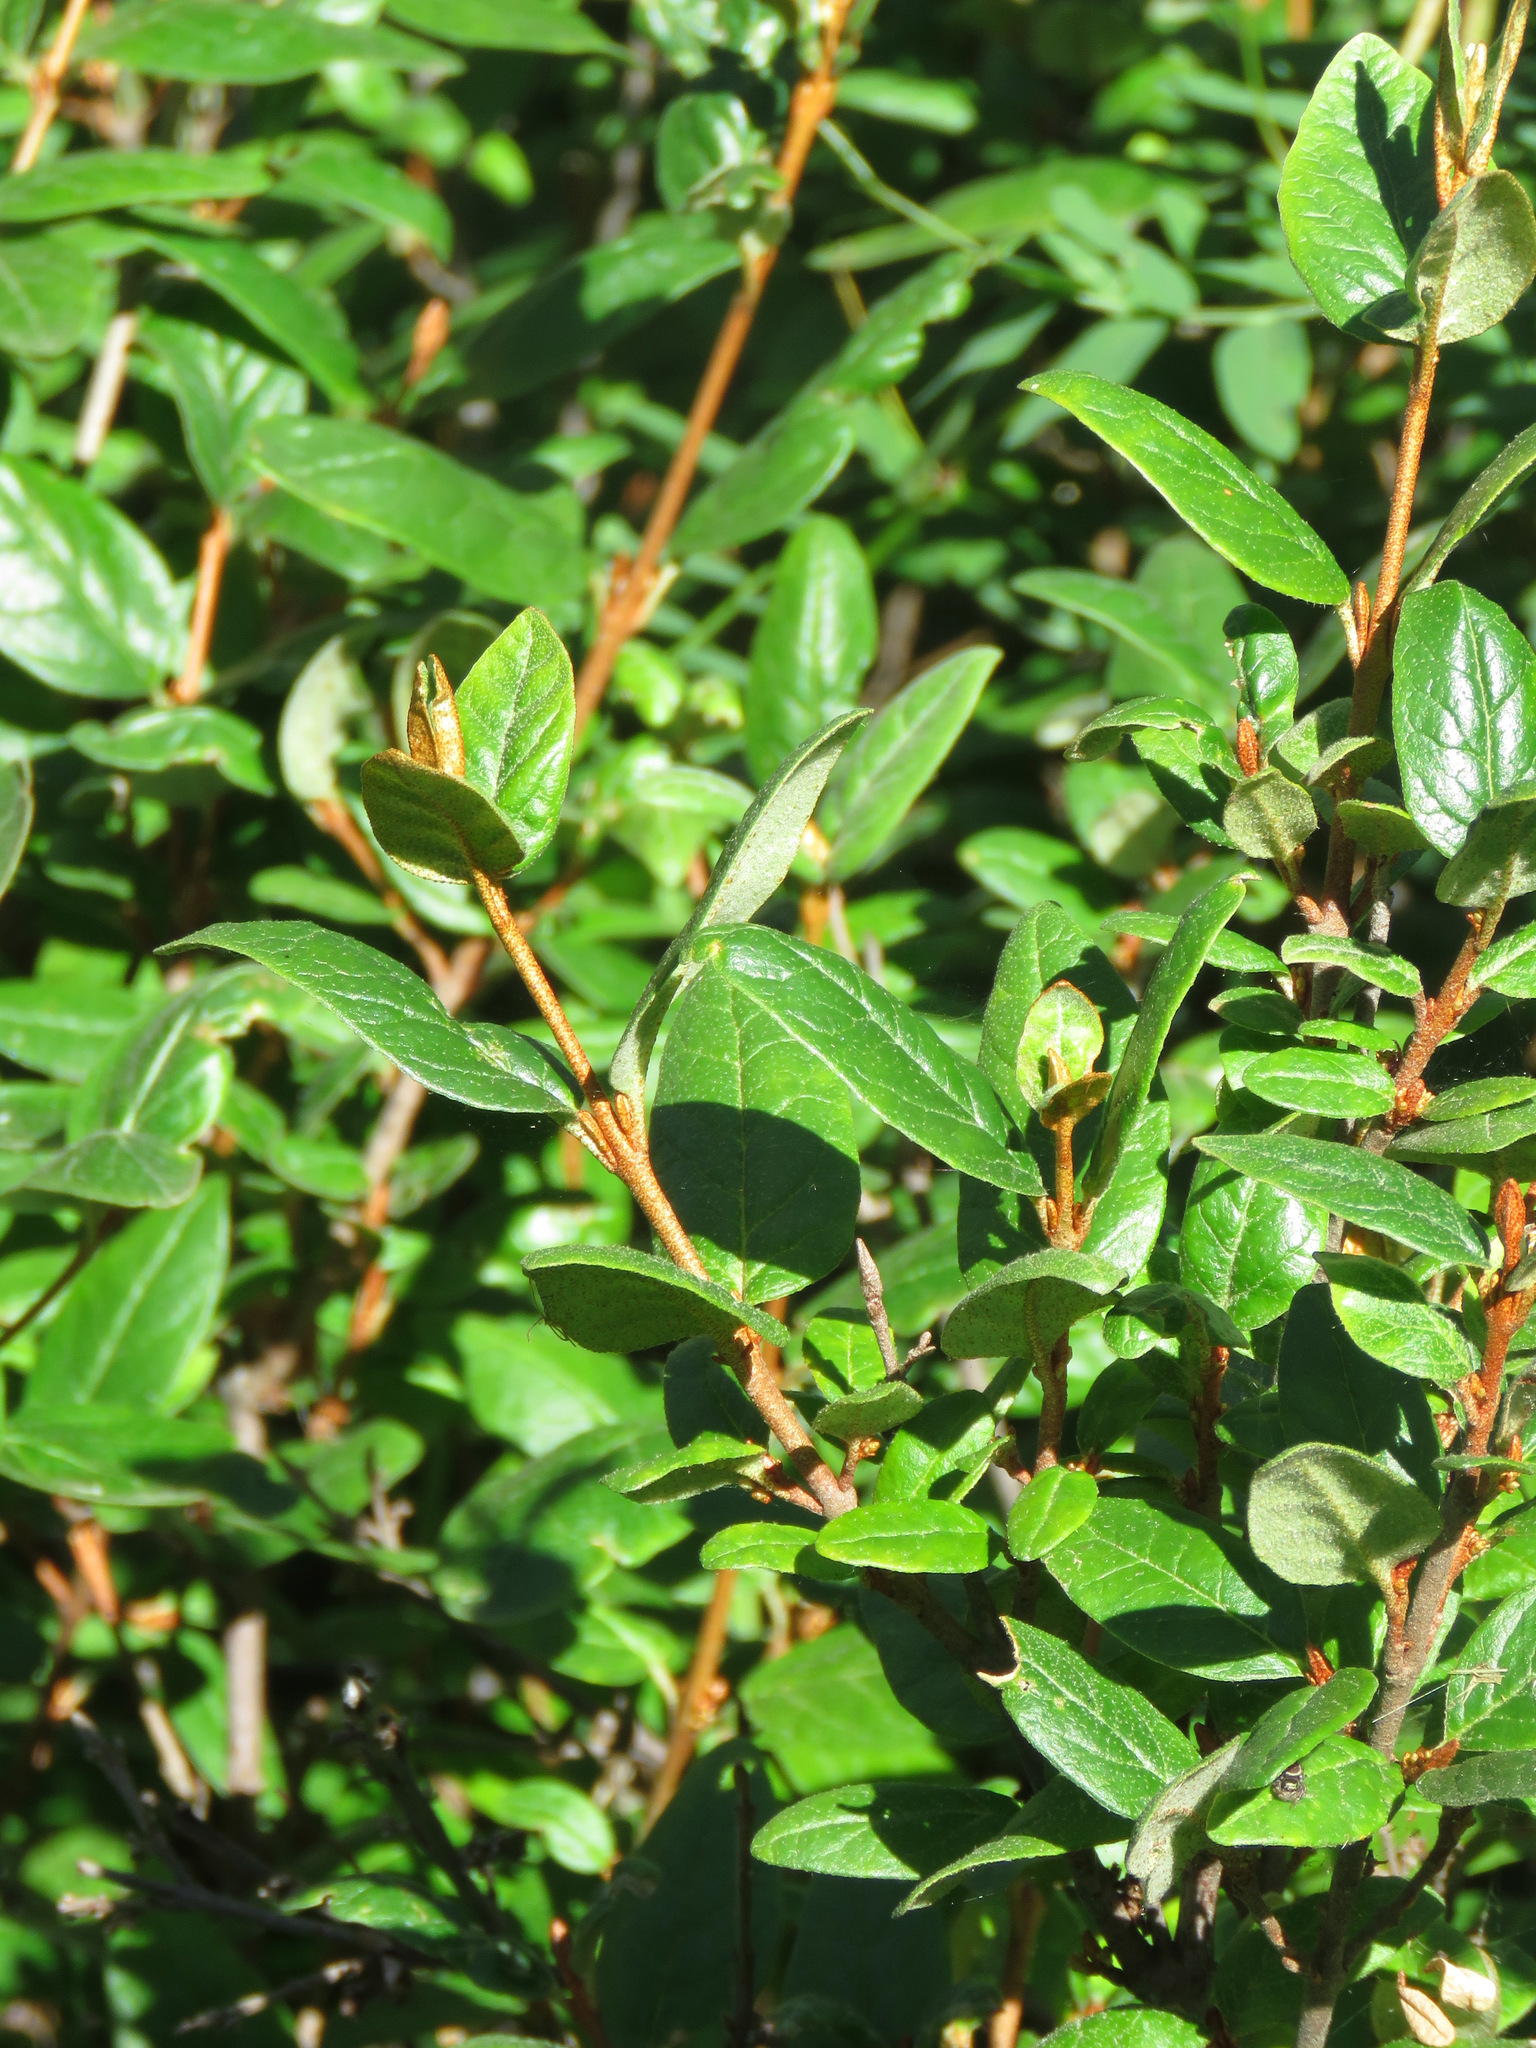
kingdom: Plantae
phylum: Tracheophyta
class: Magnoliopsida
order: Rosales
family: Elaeagnaceae
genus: Shepherdia
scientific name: Shepherdia canadensis
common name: Soapberry
